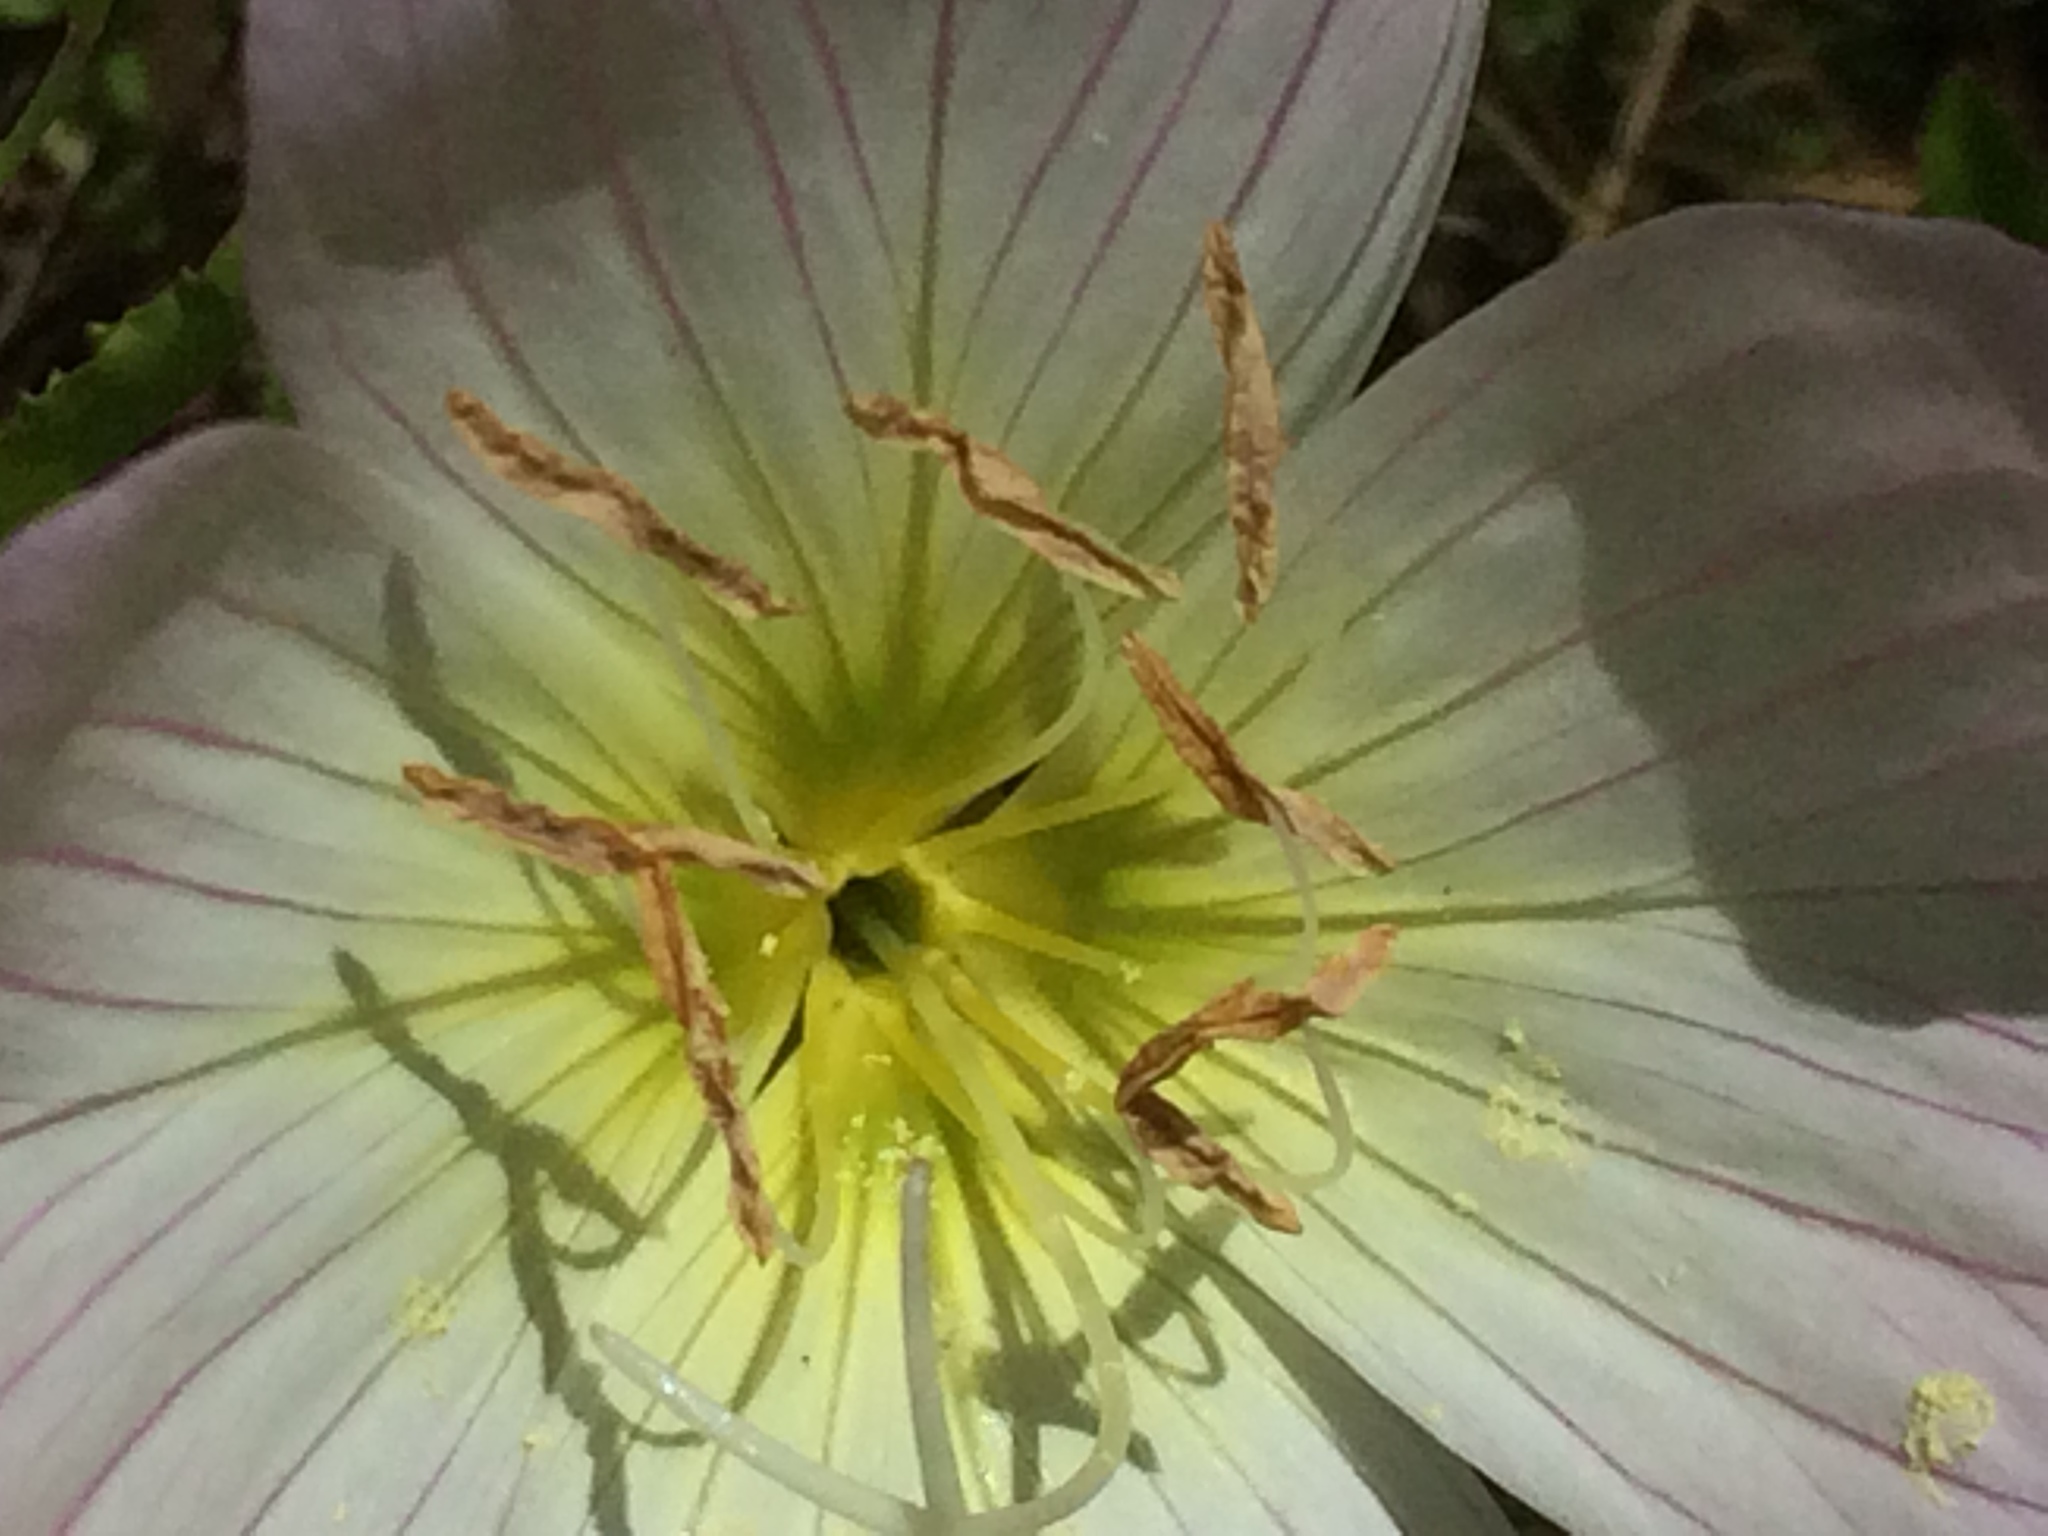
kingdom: Plantae
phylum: Tracheophyta
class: Magnoliopsida
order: Myrtales
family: Onagraceae
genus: Oenothera
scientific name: Oenothera speciosa
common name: White evening-primrose
